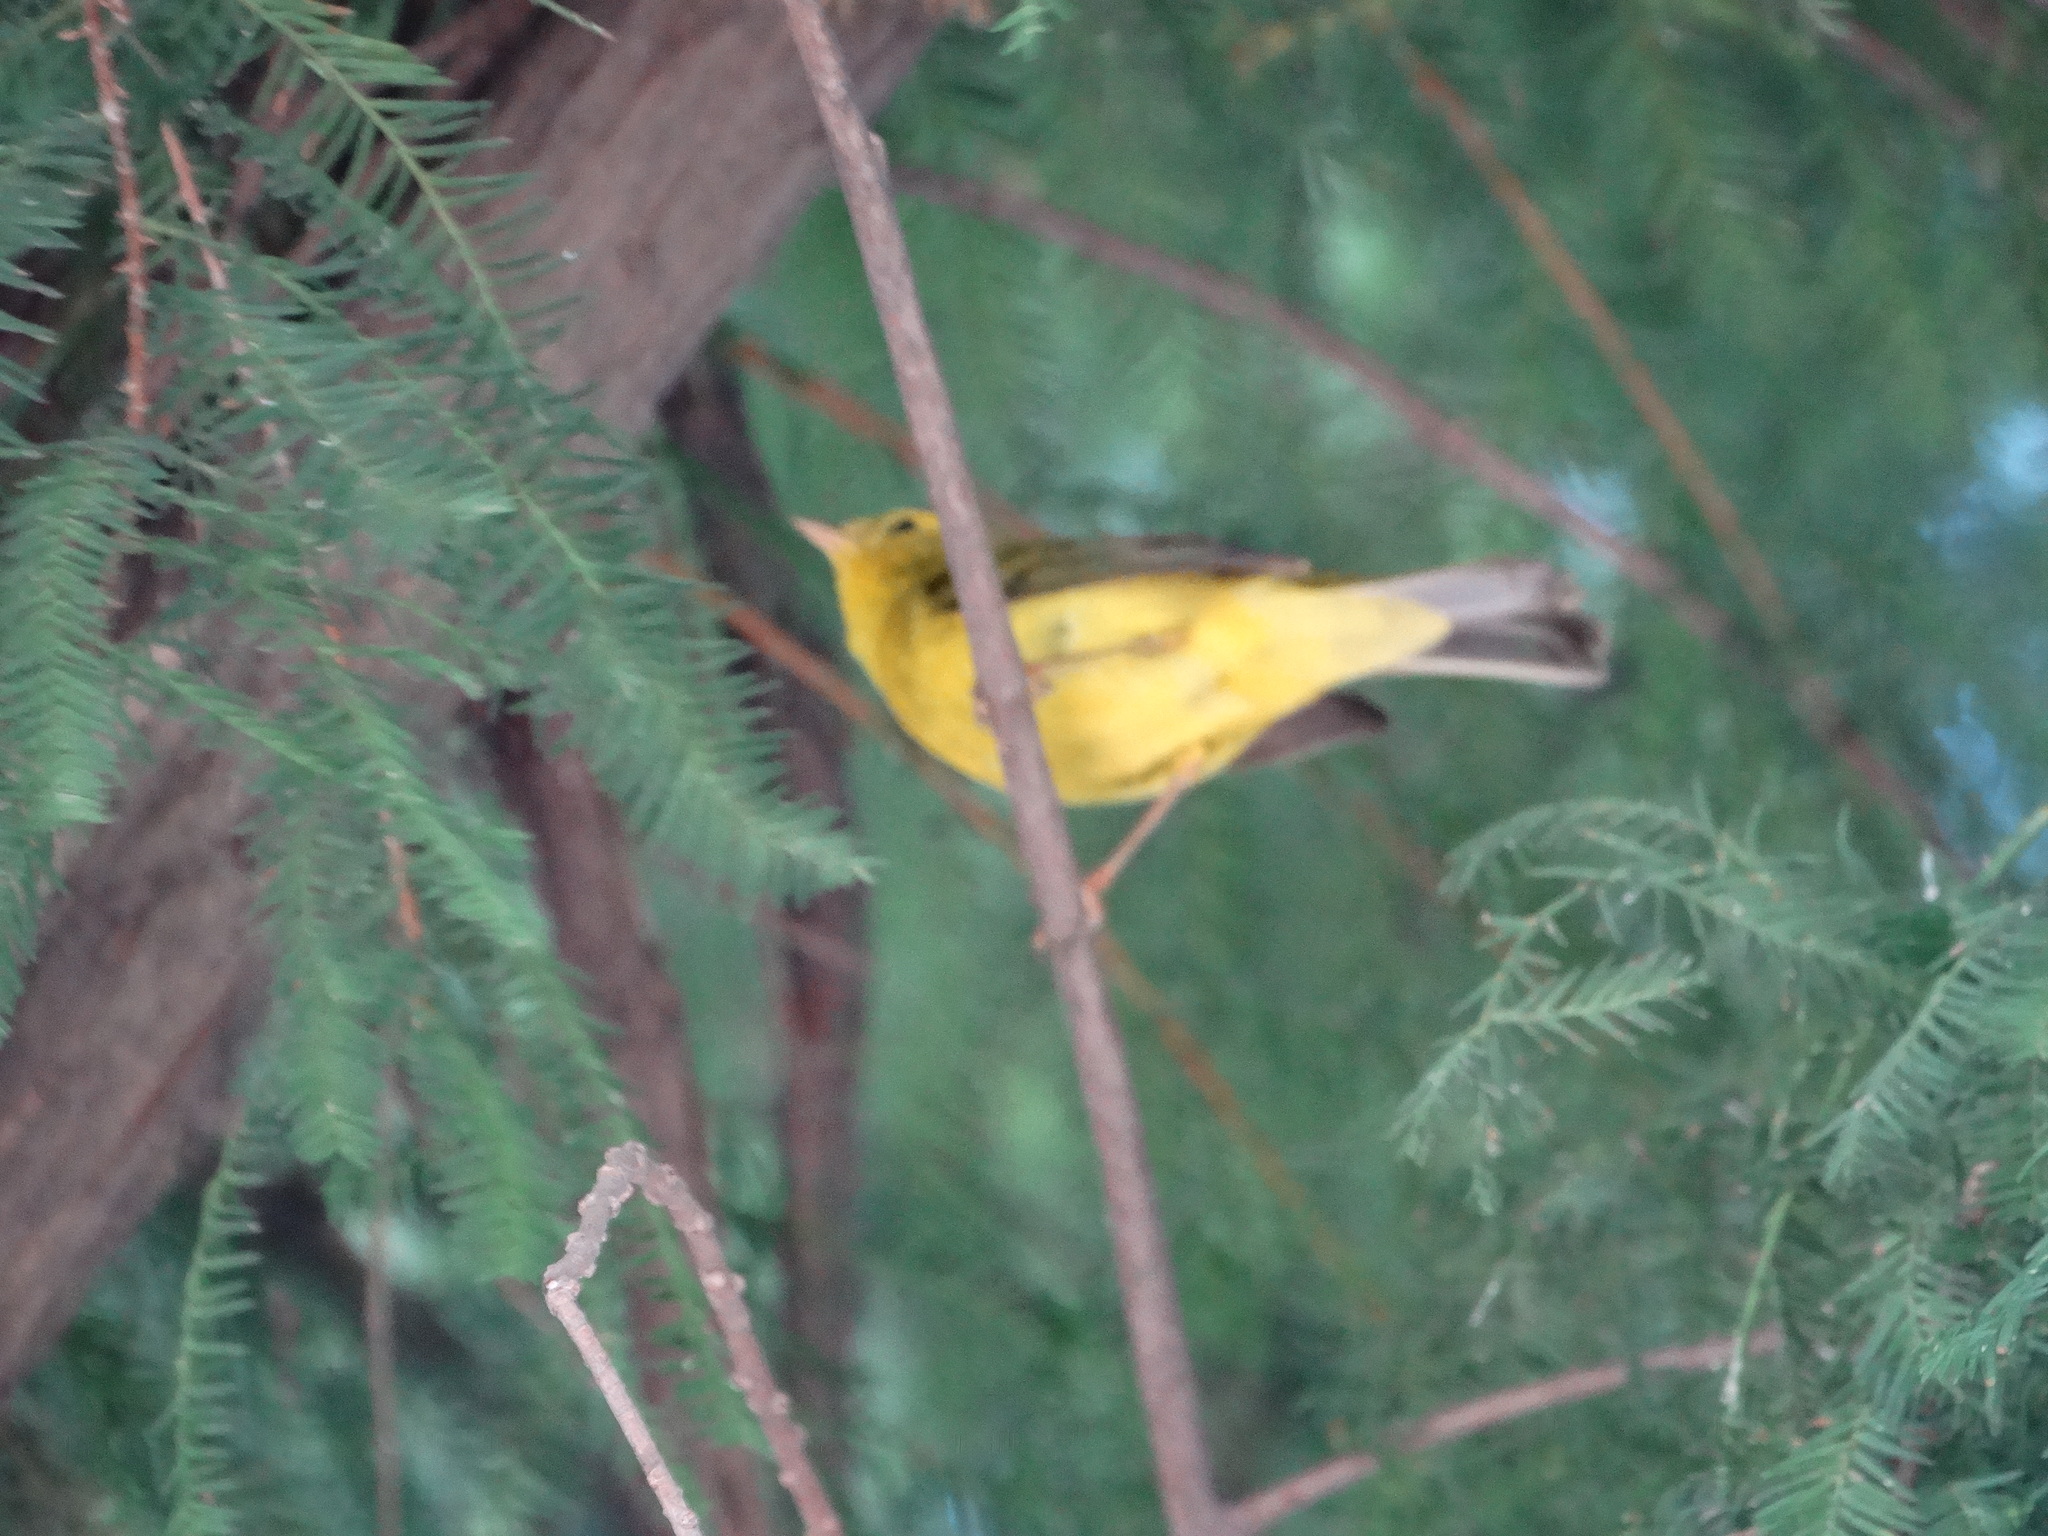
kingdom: Animalia
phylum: Chordata
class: Aves
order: Passeriformes
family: Parulidae
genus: Cardellina
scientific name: Cardellina pusilla
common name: Wilson's warbler
